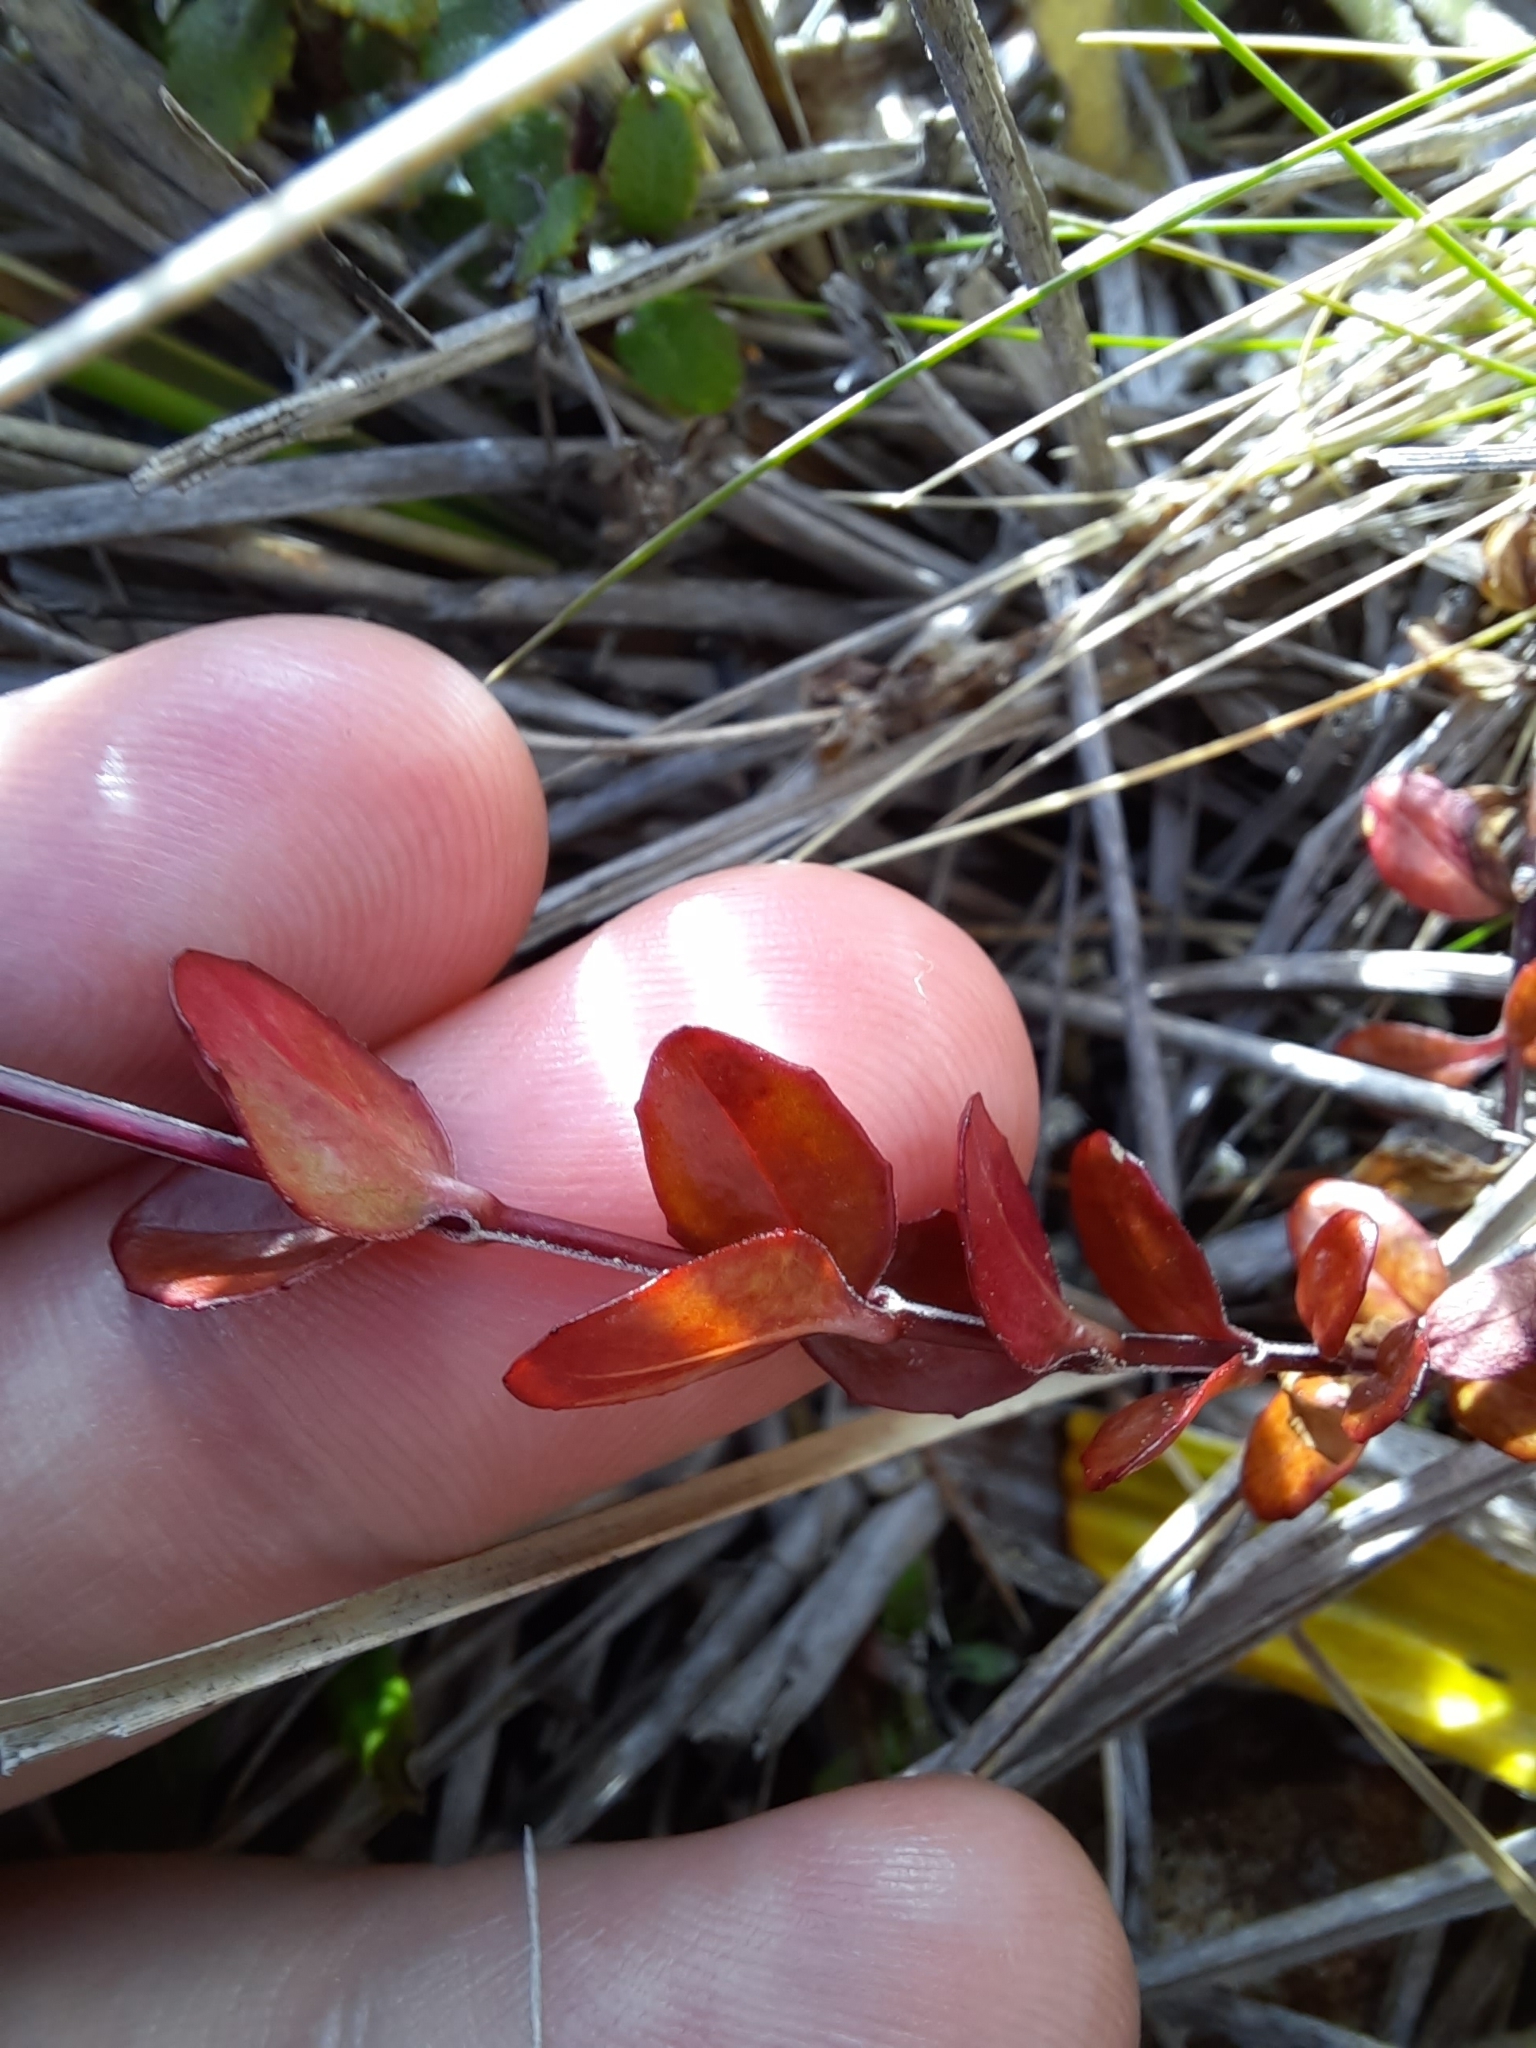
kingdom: Plantae
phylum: Tracheophyta
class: Magnoliopsida
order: Myrtales
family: Onagraceae
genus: Epilobium
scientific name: Epilobium alsinoides
